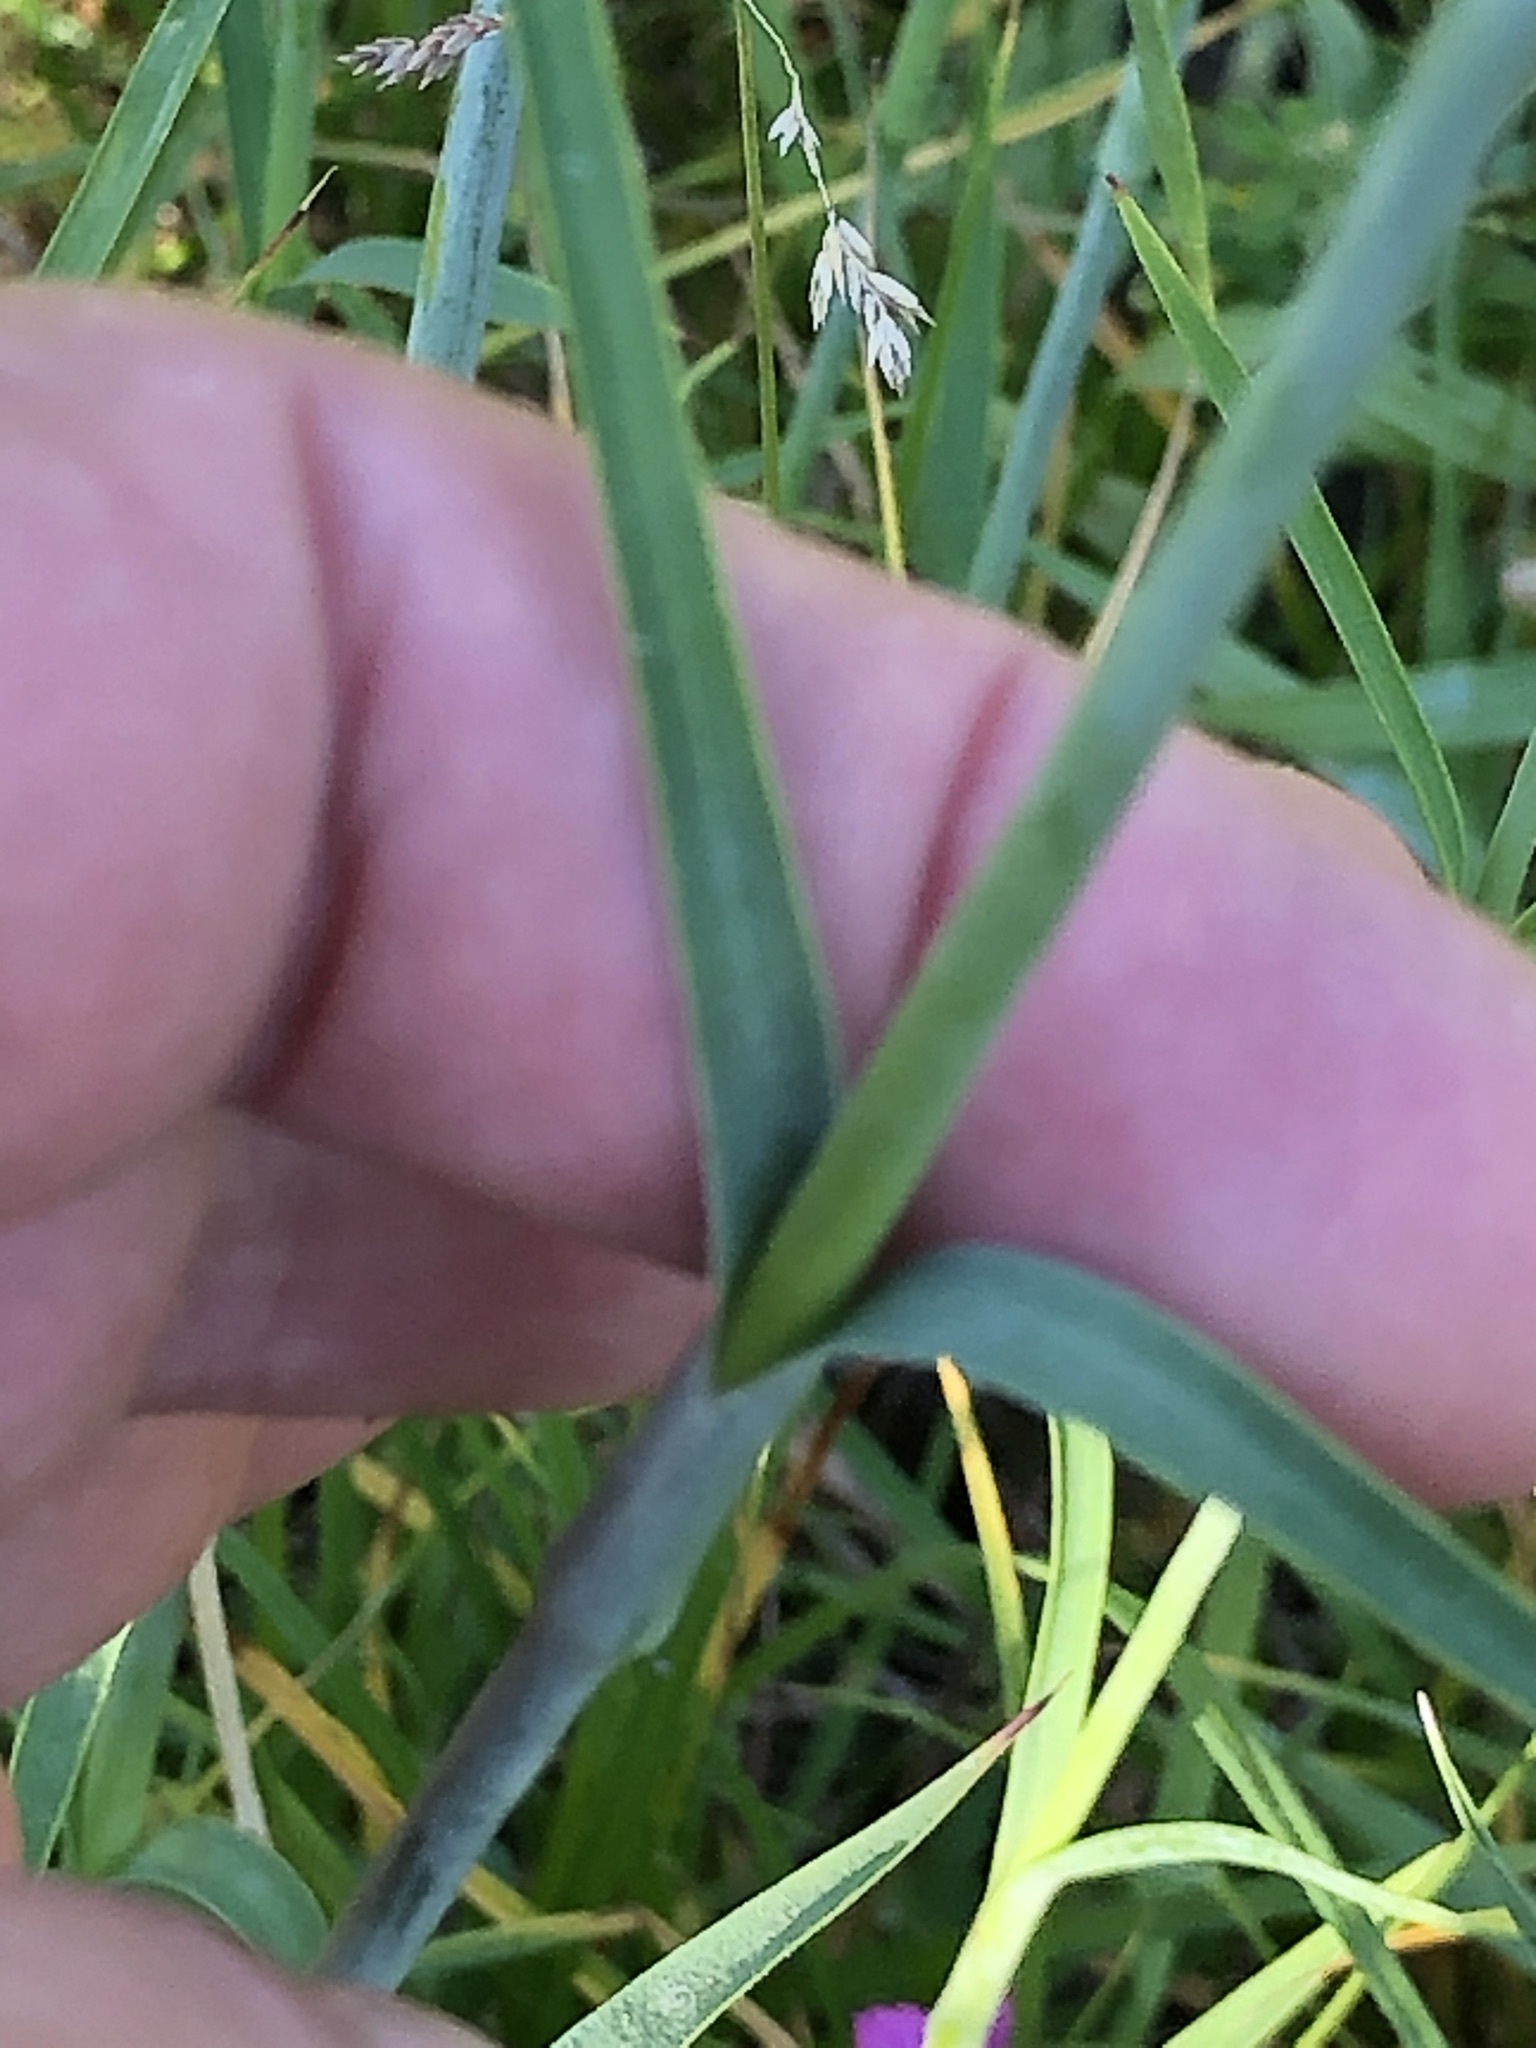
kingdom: Plantae
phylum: Tracheophyta
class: Magnoliopsida
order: Caryophyllales
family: Caryophyllaceae
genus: Dianthus
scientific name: Dianthus giganteus
